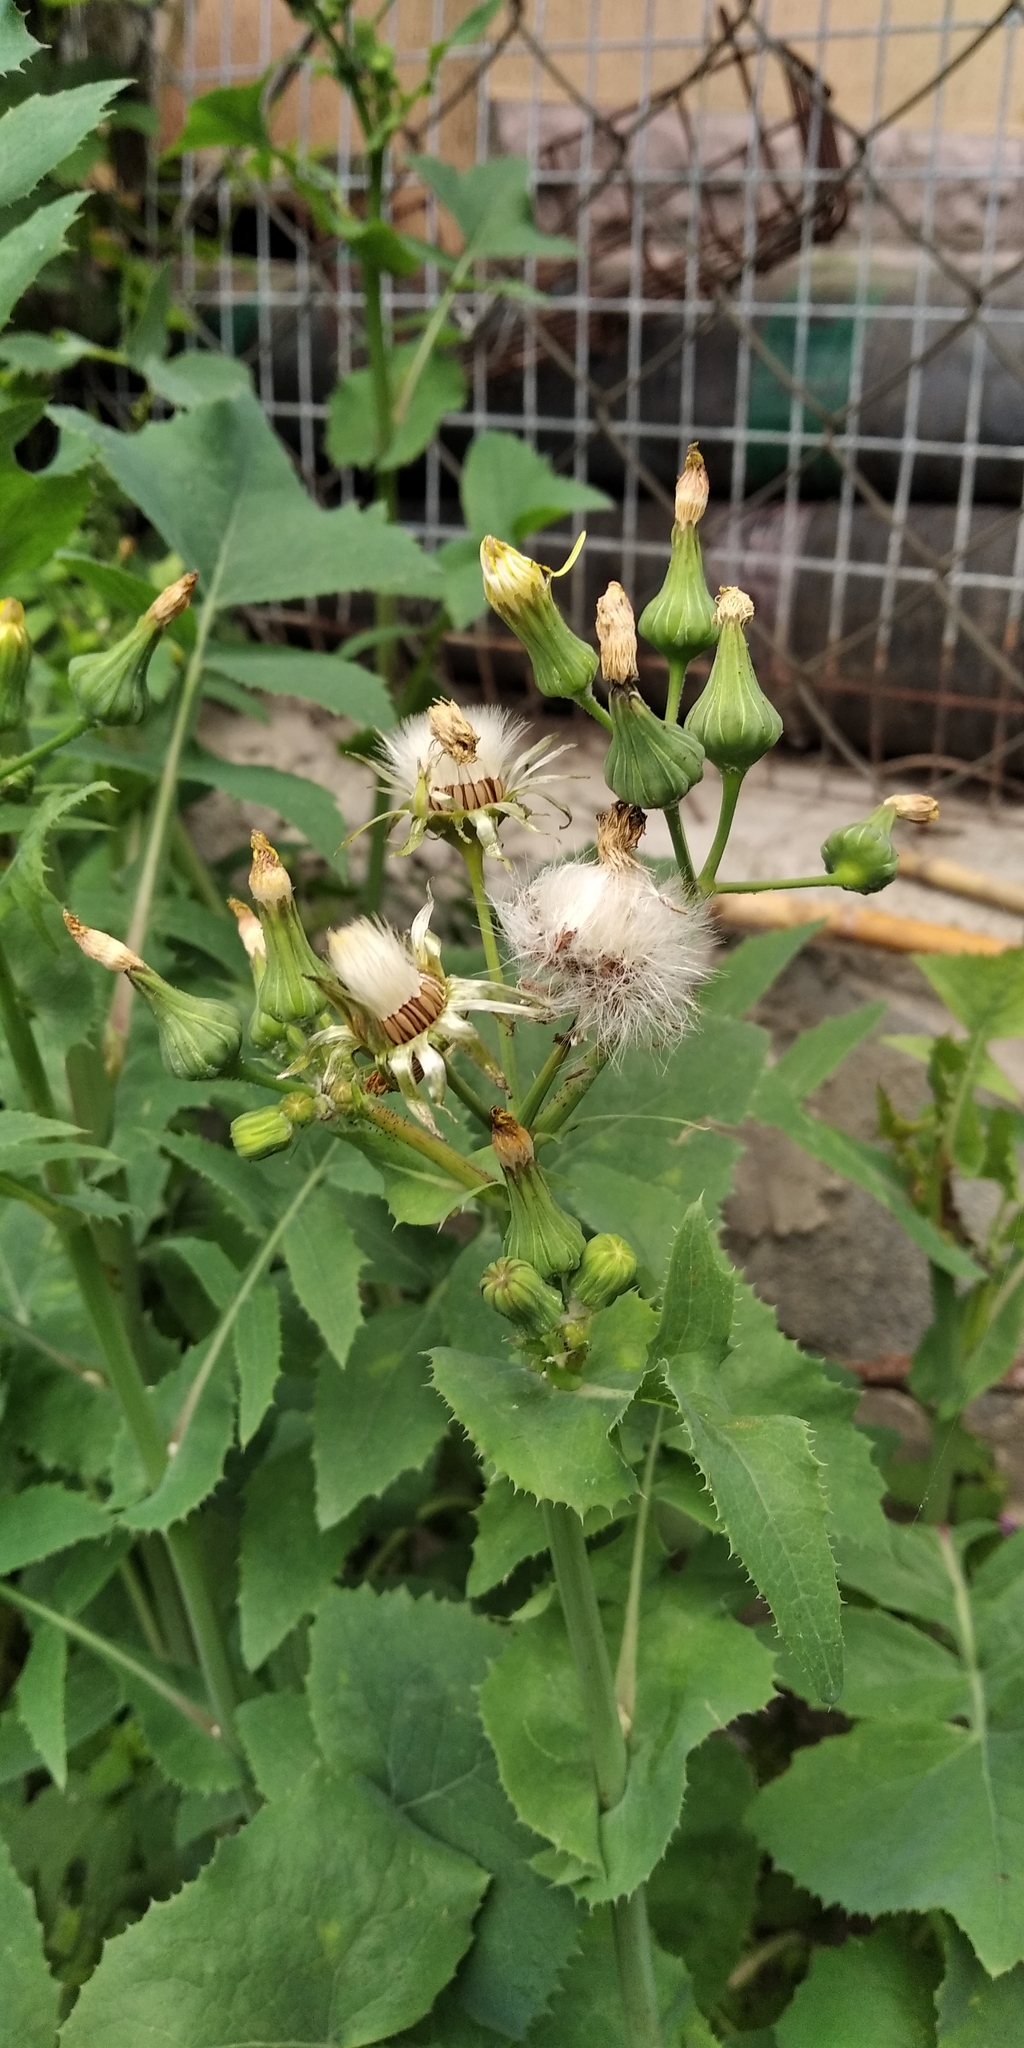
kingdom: Plantae
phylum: Tracheophyta
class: Magnoliopsida
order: Asterales
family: Asteraceae
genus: Sonchus
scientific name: Sonchus oleraceus
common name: Common sowthistle
